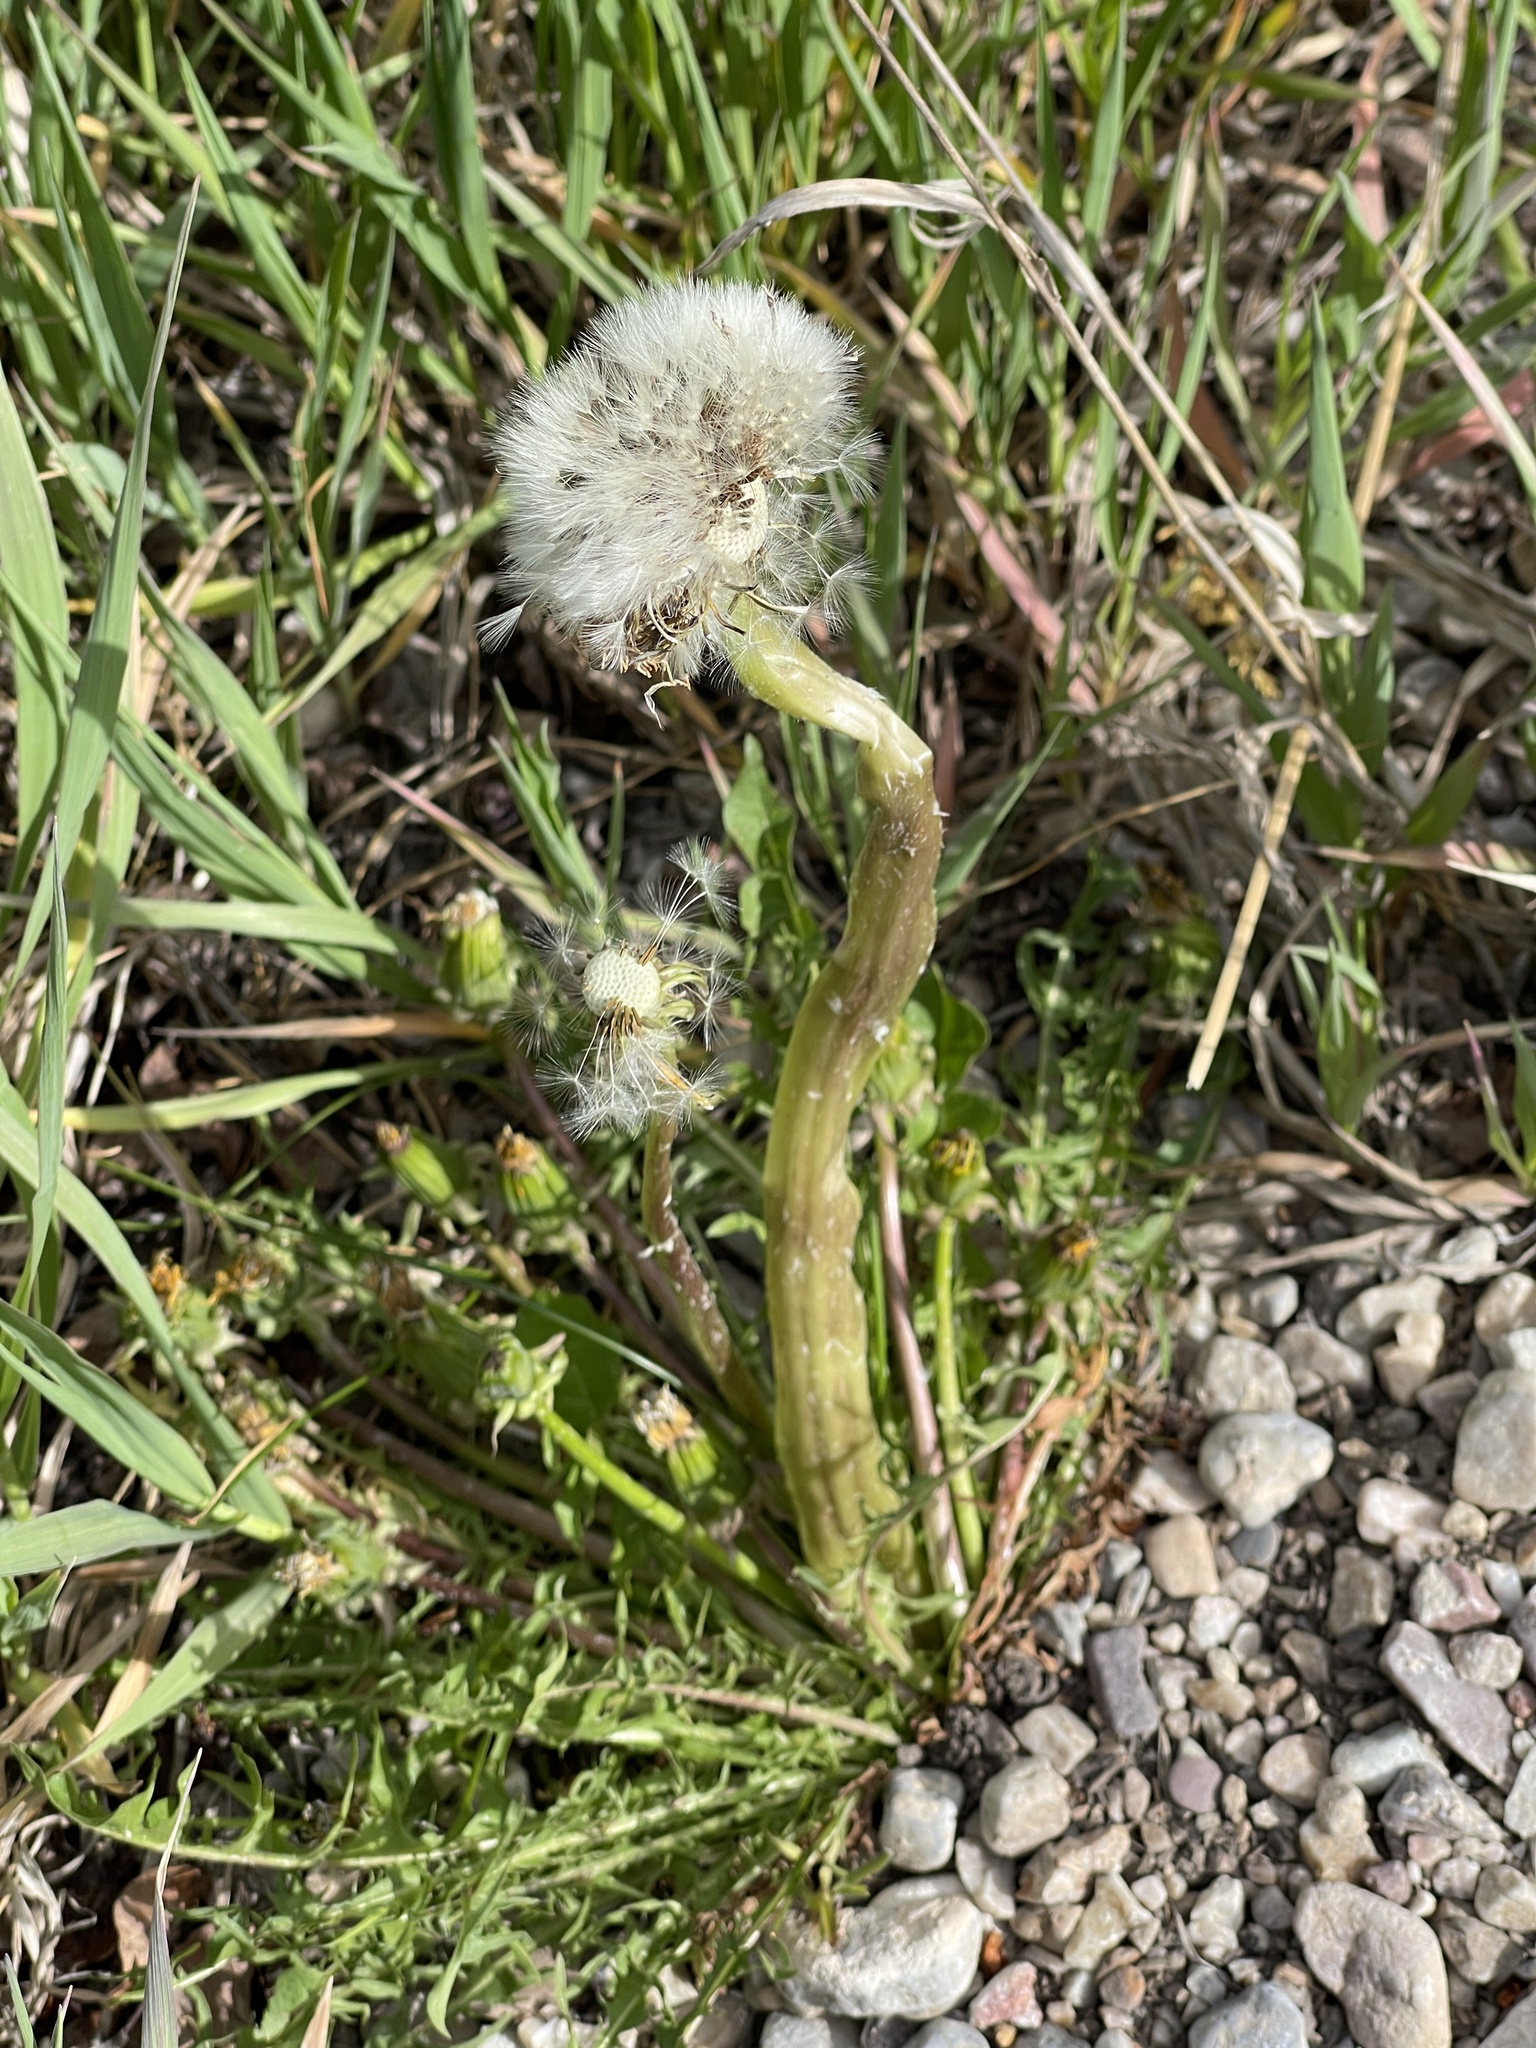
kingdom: Plantae
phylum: Tracheophyta
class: Magnoliopsida
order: Asterales
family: Asteraceae
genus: Taraxacum
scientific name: Taraxacum officinale
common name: Common dandelion
